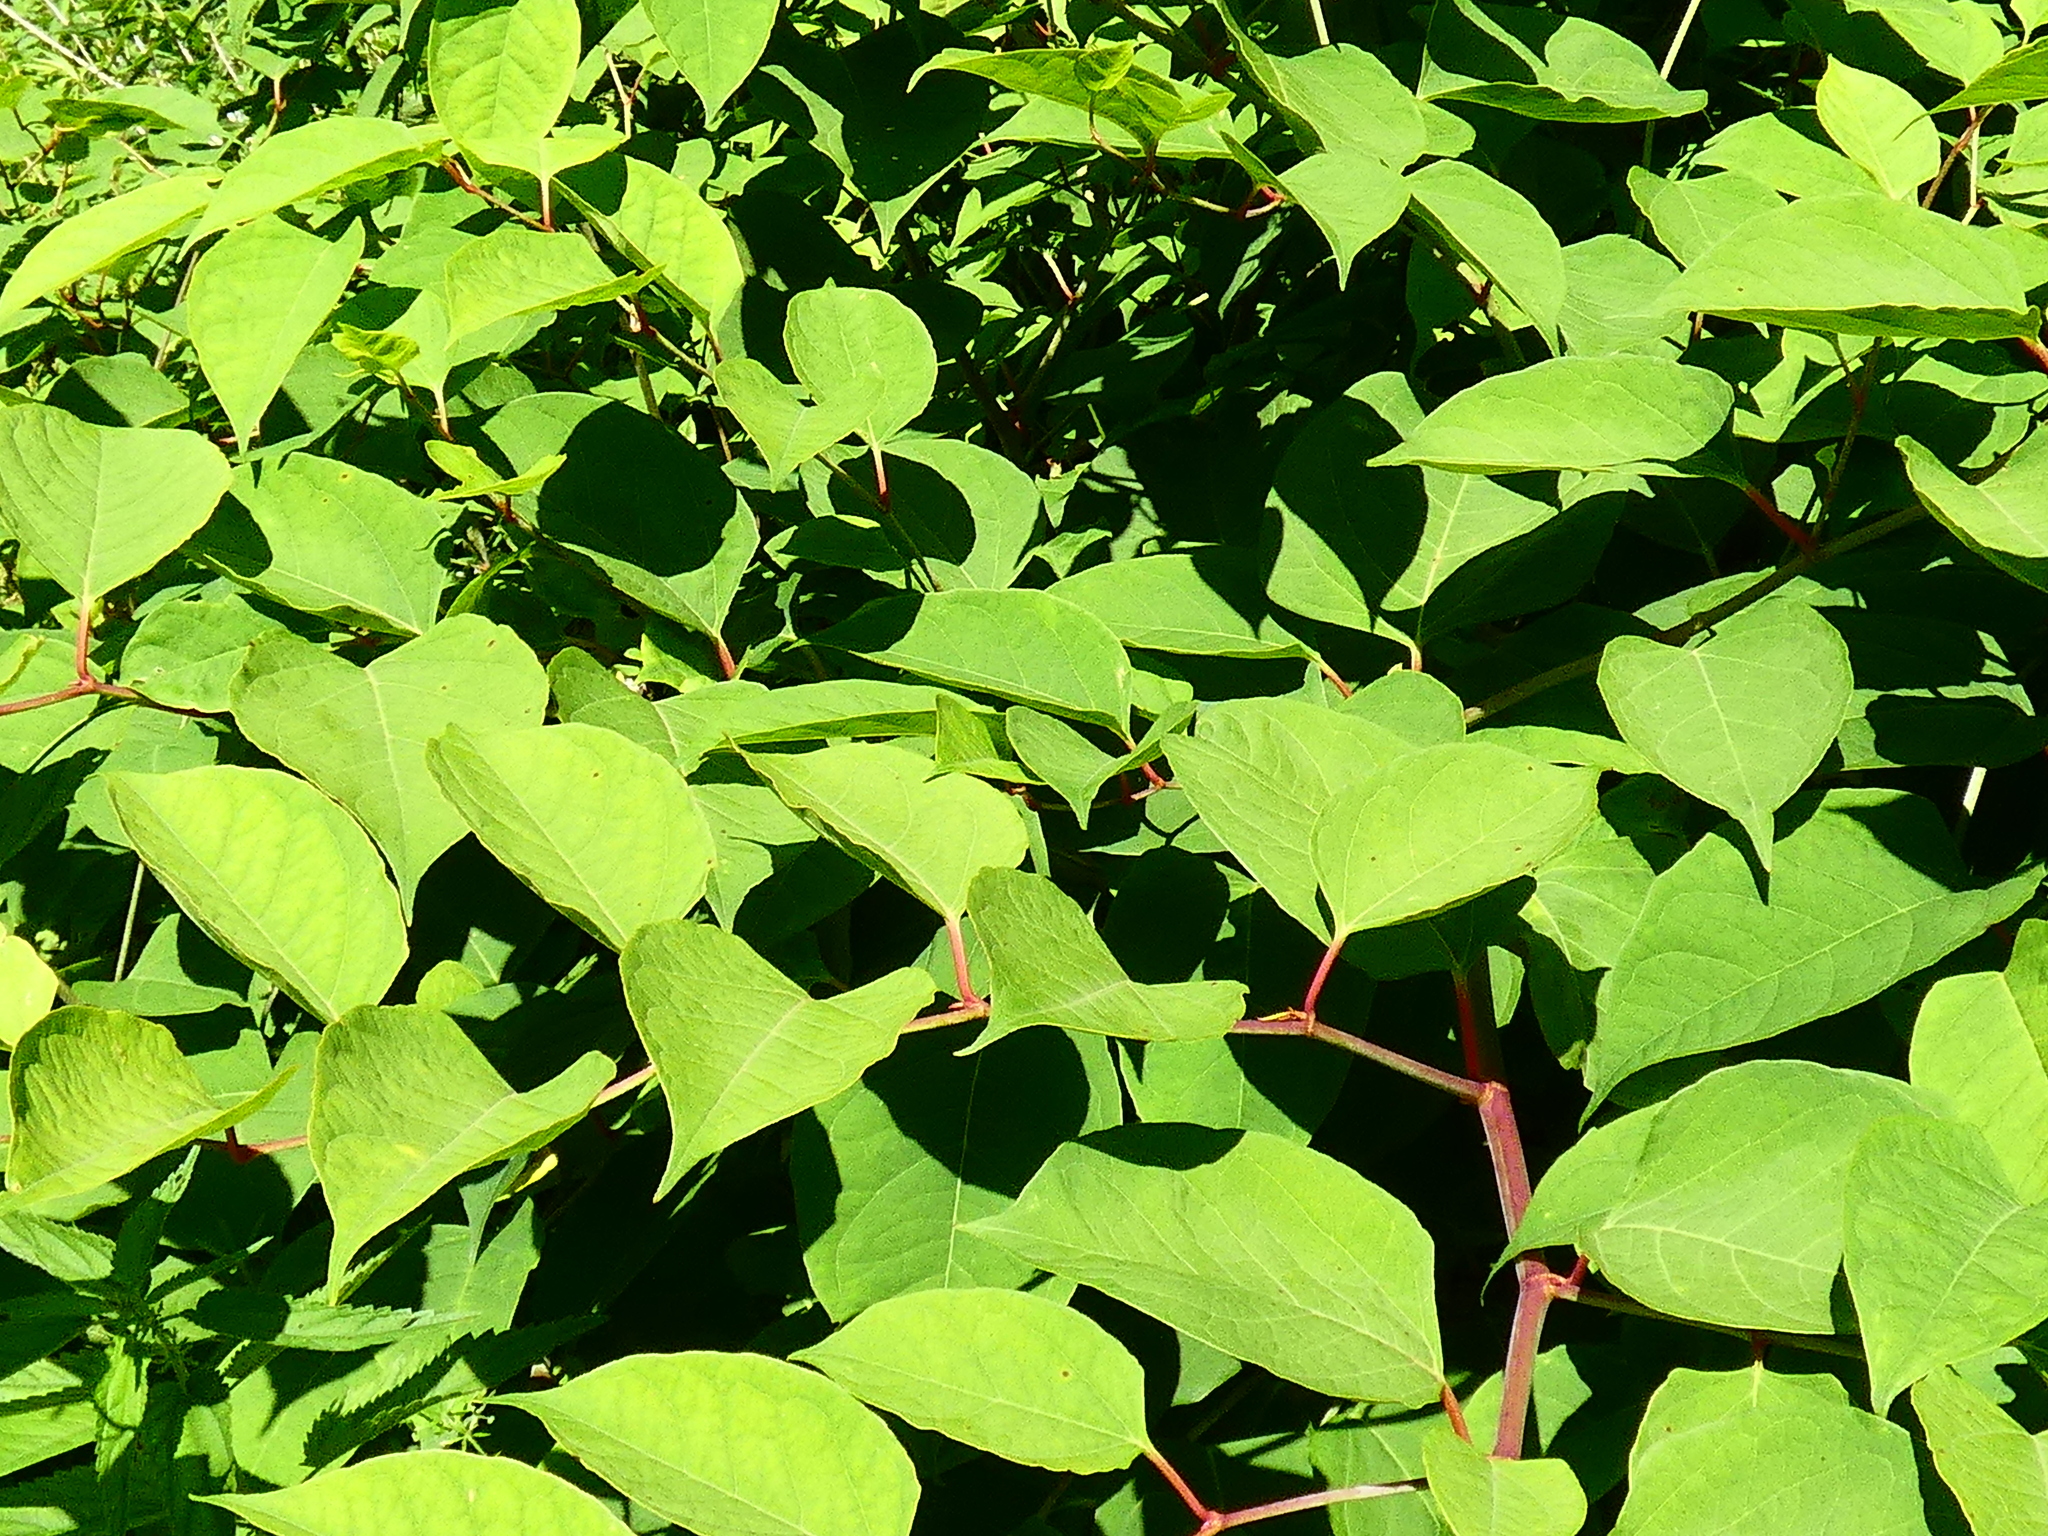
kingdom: Plantae
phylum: Tracheophyta
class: Magnoliopsida
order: Caryophyllales
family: Polygonaceae
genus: Reynoutria
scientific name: Reynoutria japonica
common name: Japanese knotweed
